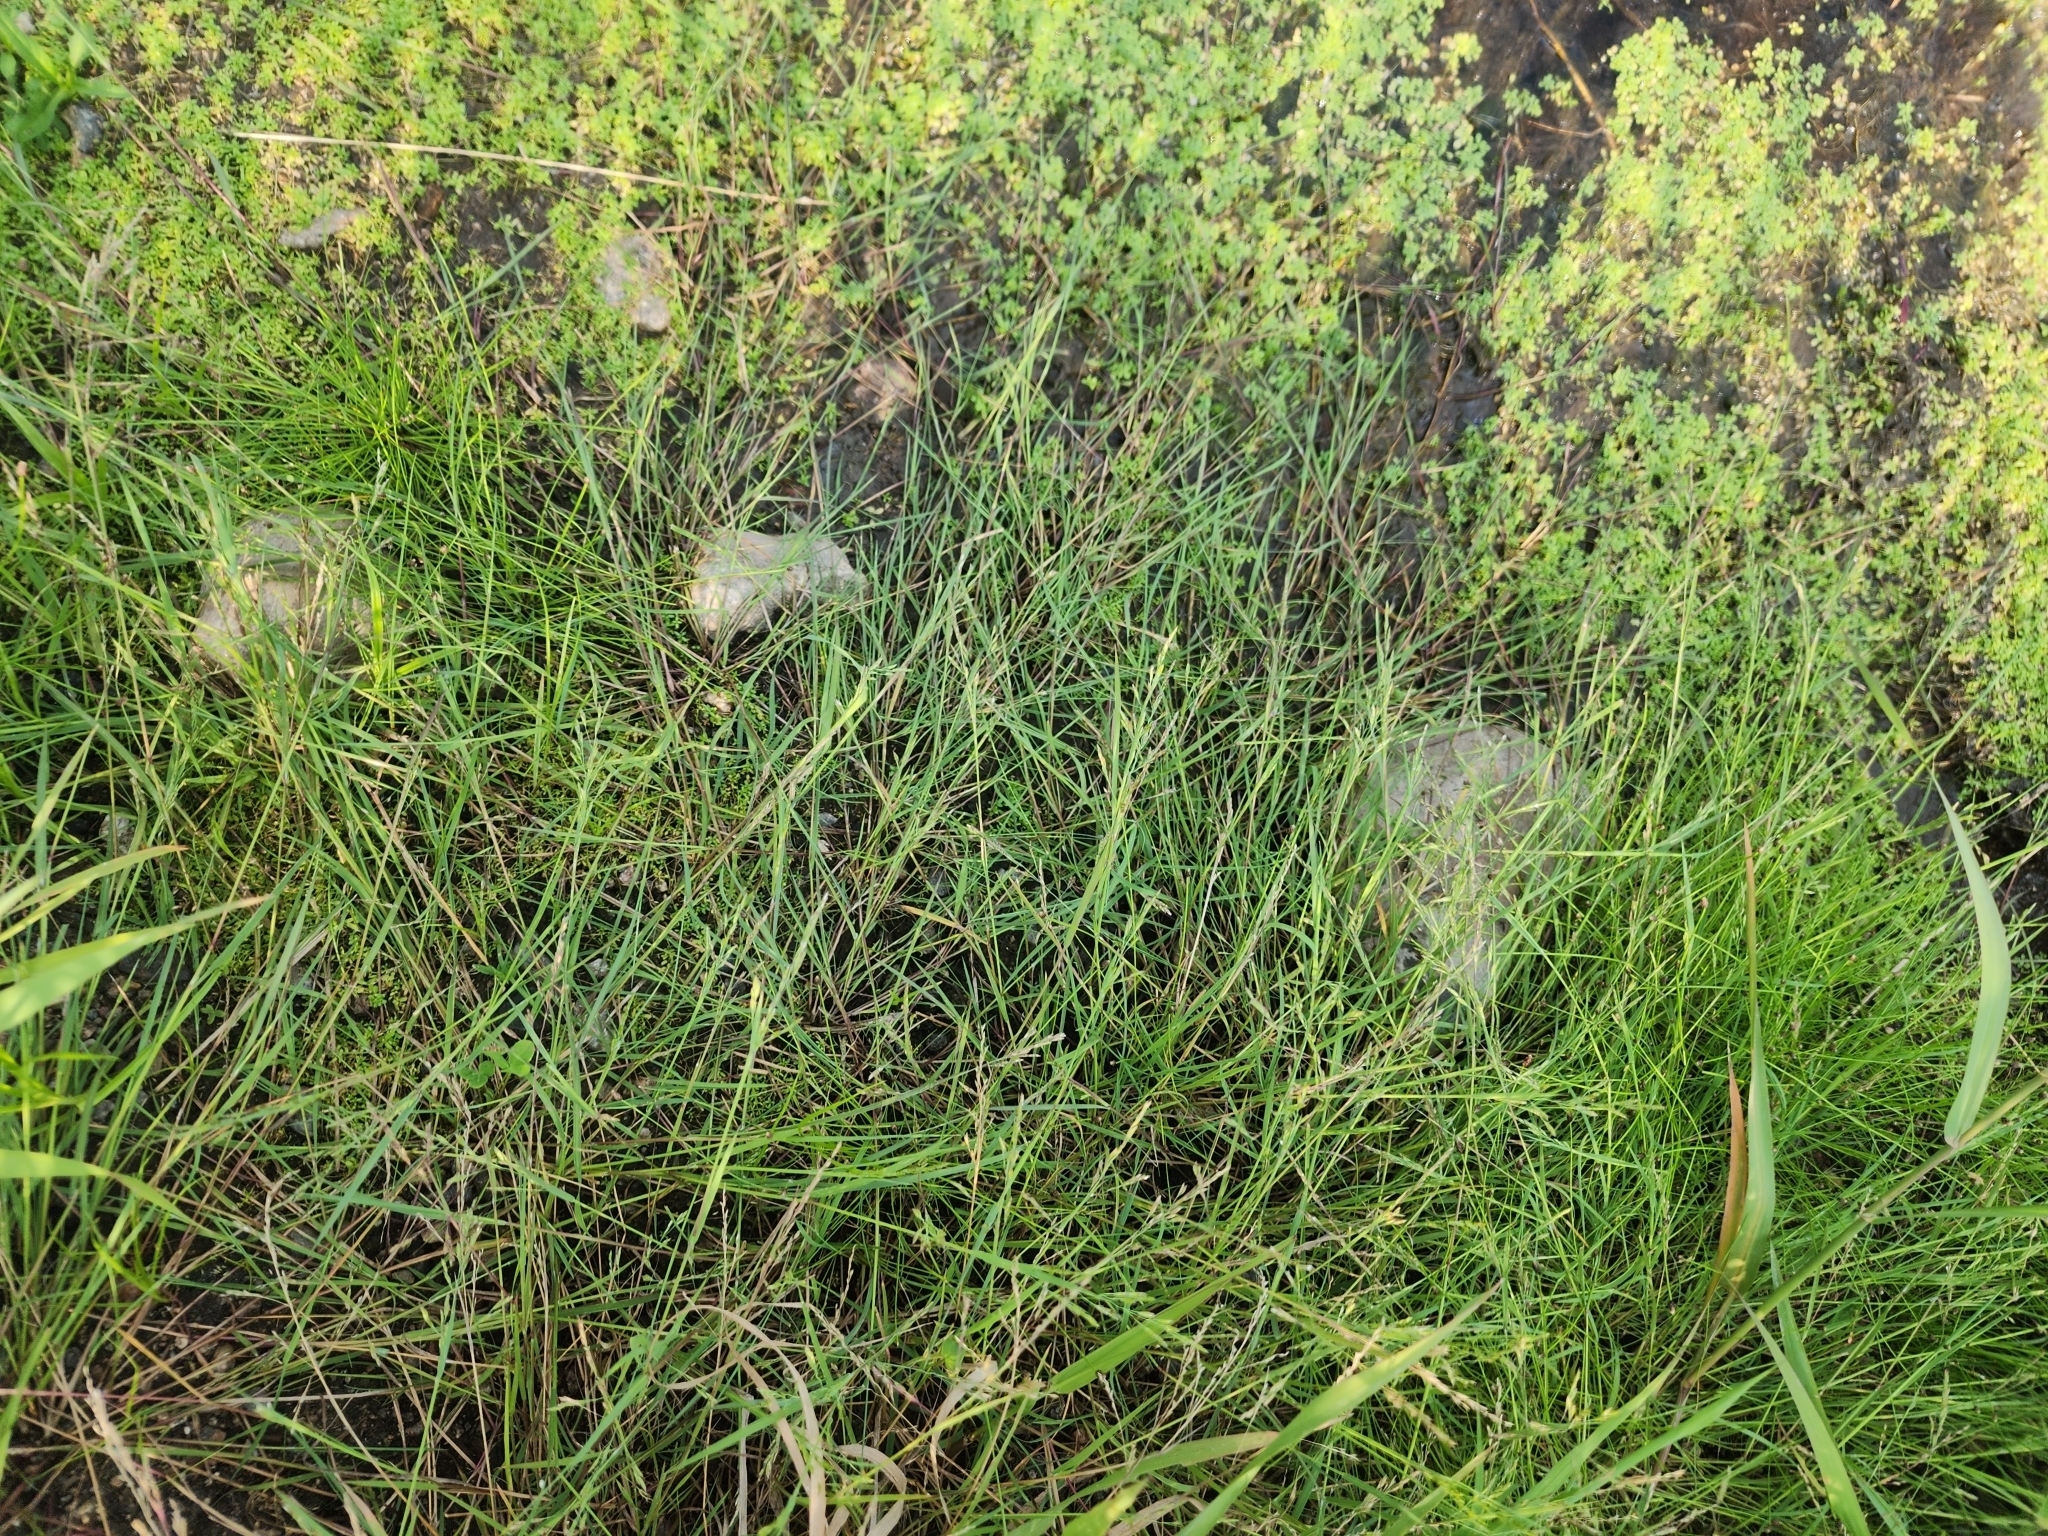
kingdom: Plantae
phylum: Tracheophyta
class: Liliopsida
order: Poales
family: Poaceae
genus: Torreyochloa
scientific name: Torreyochloa pallida
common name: Pale false mannagrass
